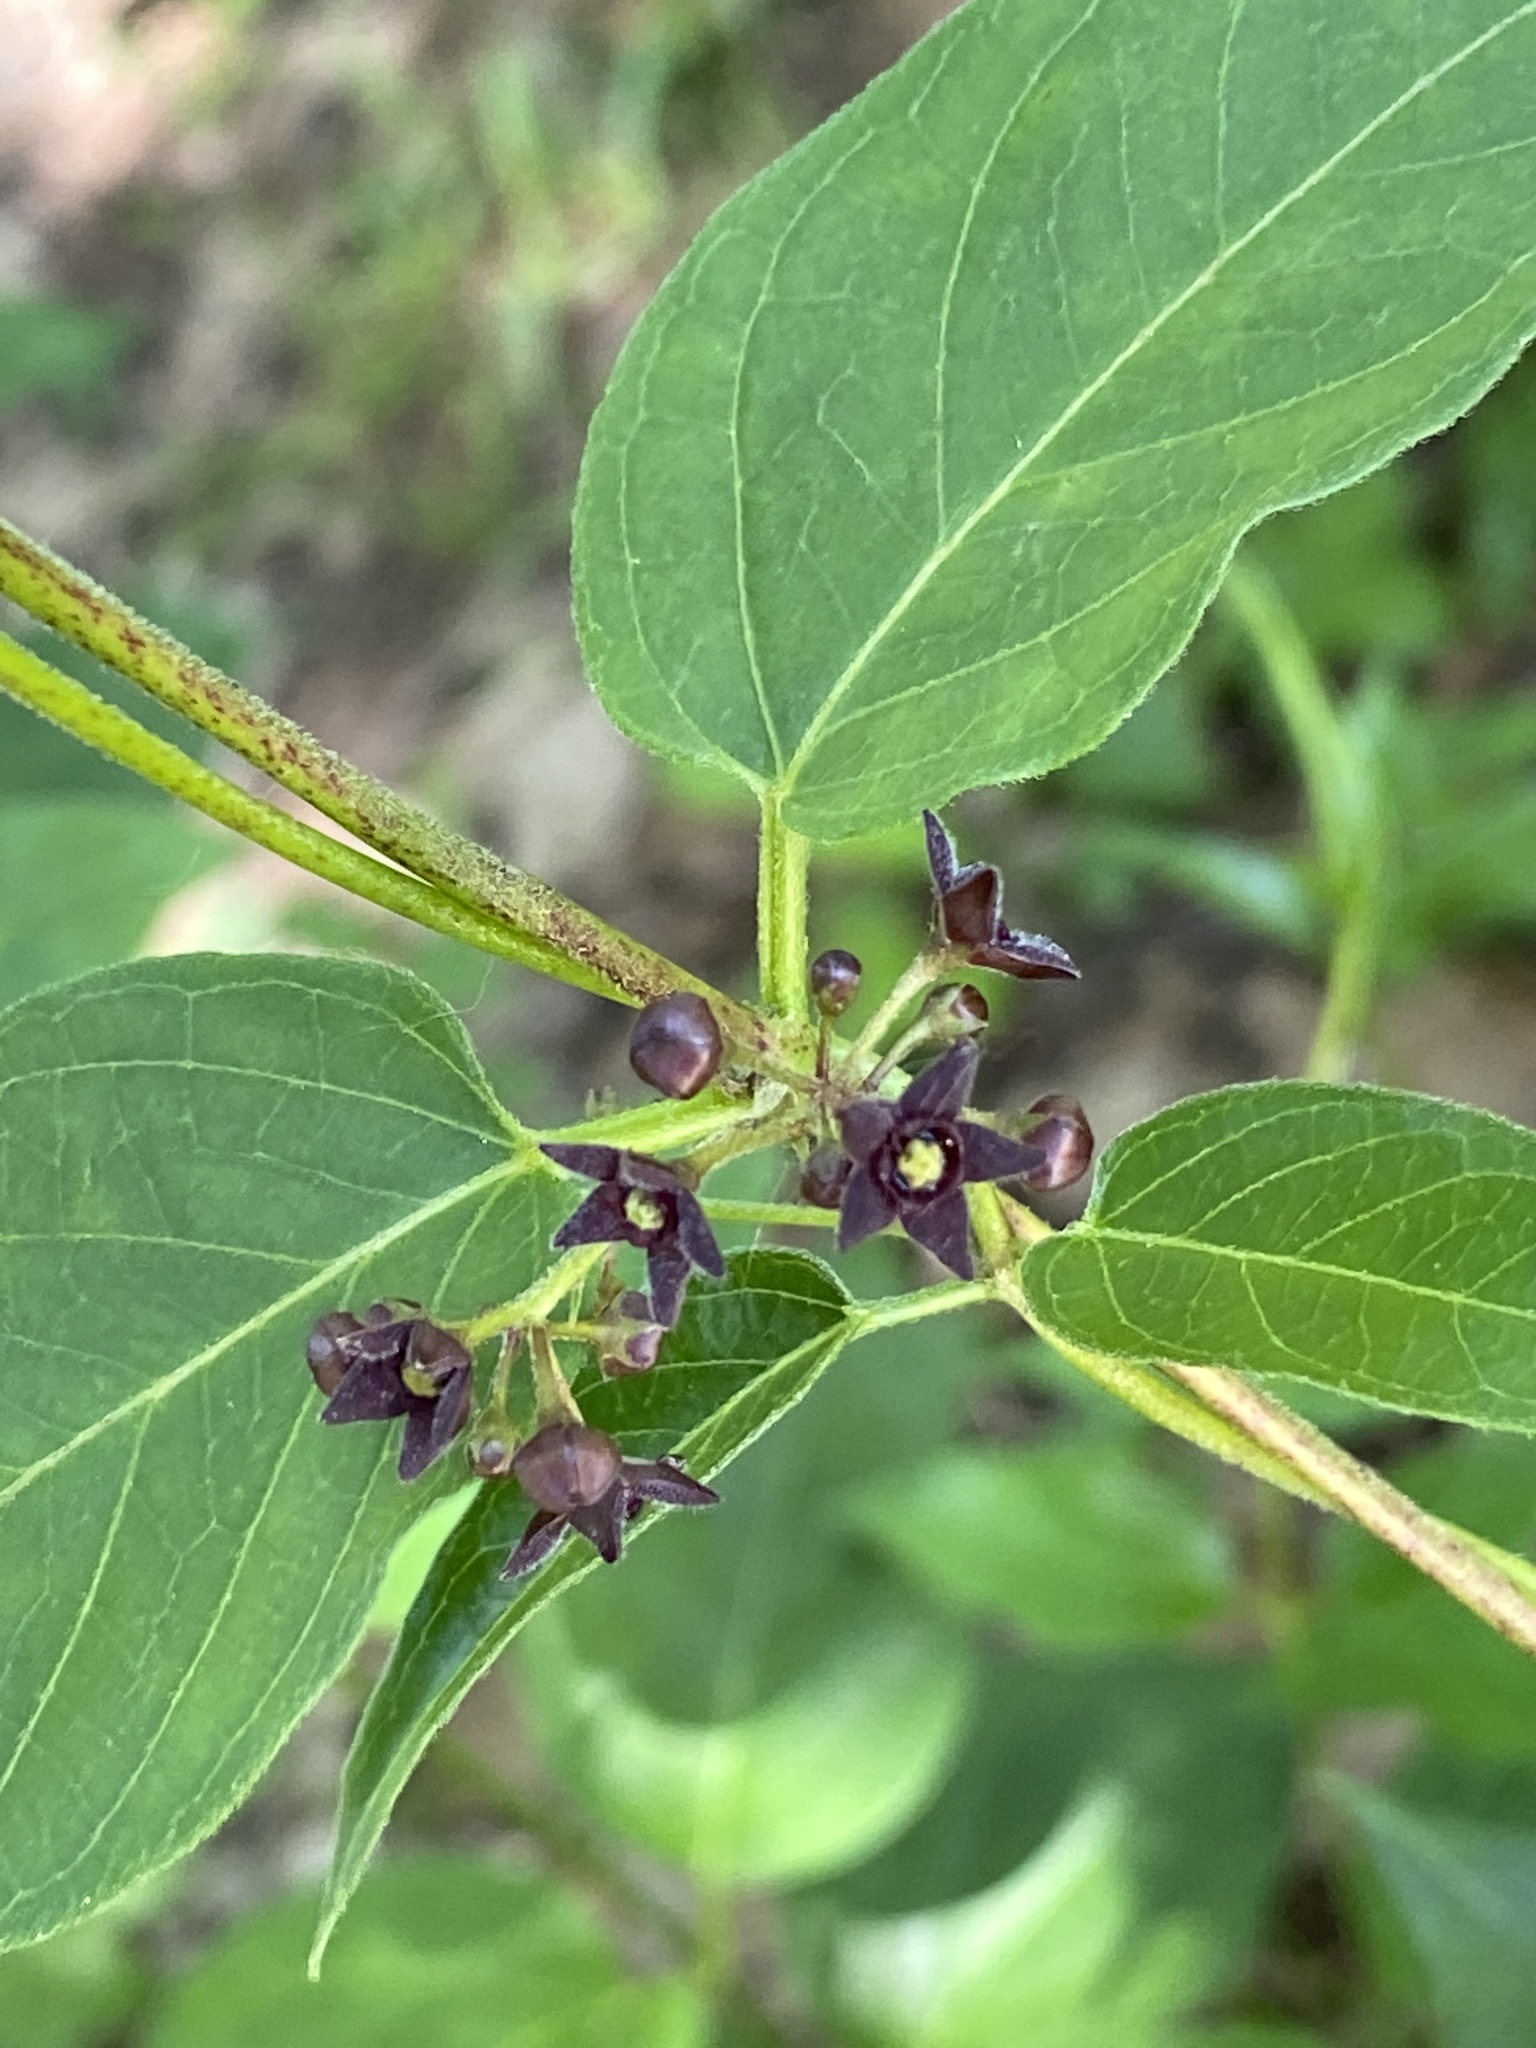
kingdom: Plantae
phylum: Tracheophyta
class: Magnoliopsida
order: Gentianales
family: Apocynaceae
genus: Vincetoxicum
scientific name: Vincetoxicum nigrum
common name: Black swallow-wort
